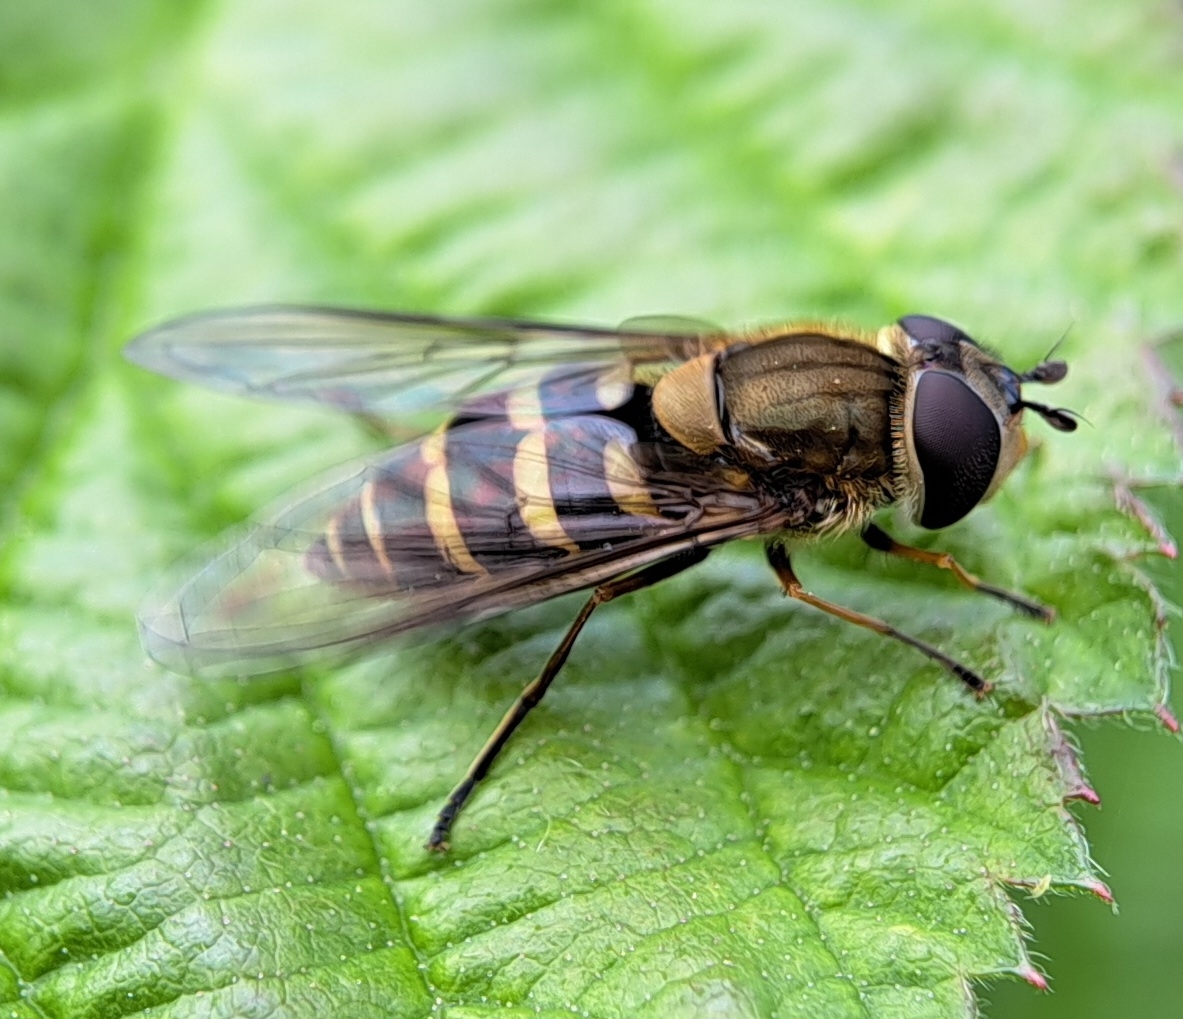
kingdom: Animalia
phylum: Arthropoda
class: Insecta
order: Diptera
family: Syrphidae
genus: Syrphus
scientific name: Syrphus torvus
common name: Hairy-eyed flower fly
